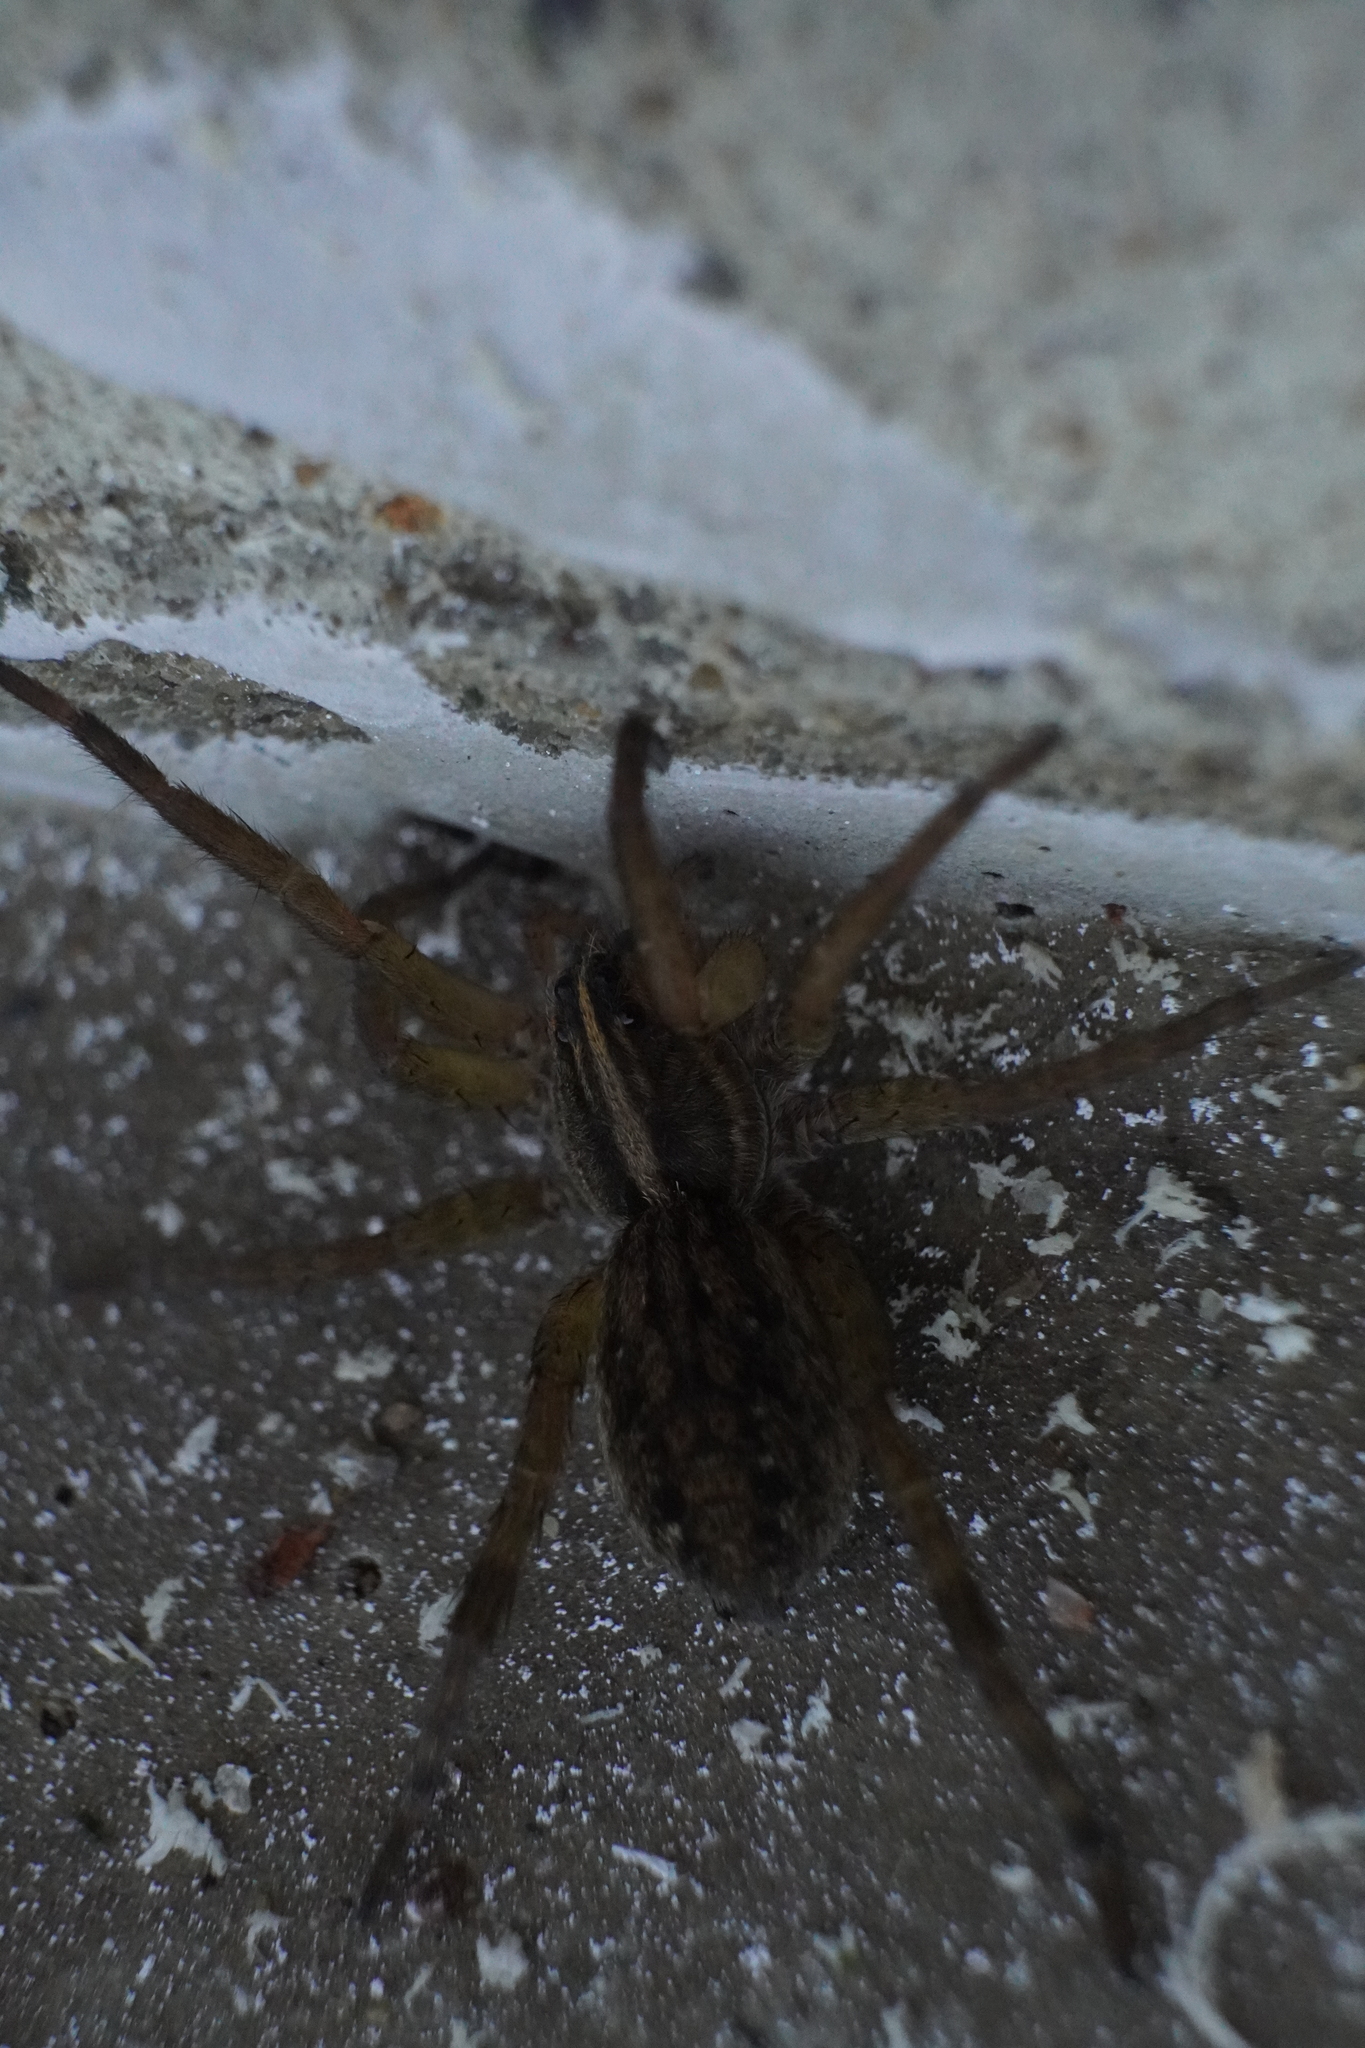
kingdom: Animalia
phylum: Arthropoda
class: Arachnida
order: Araneae
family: Lycosidae
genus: Tigrosa
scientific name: Tigrosa helluo
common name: Wetland giant wolf spider
